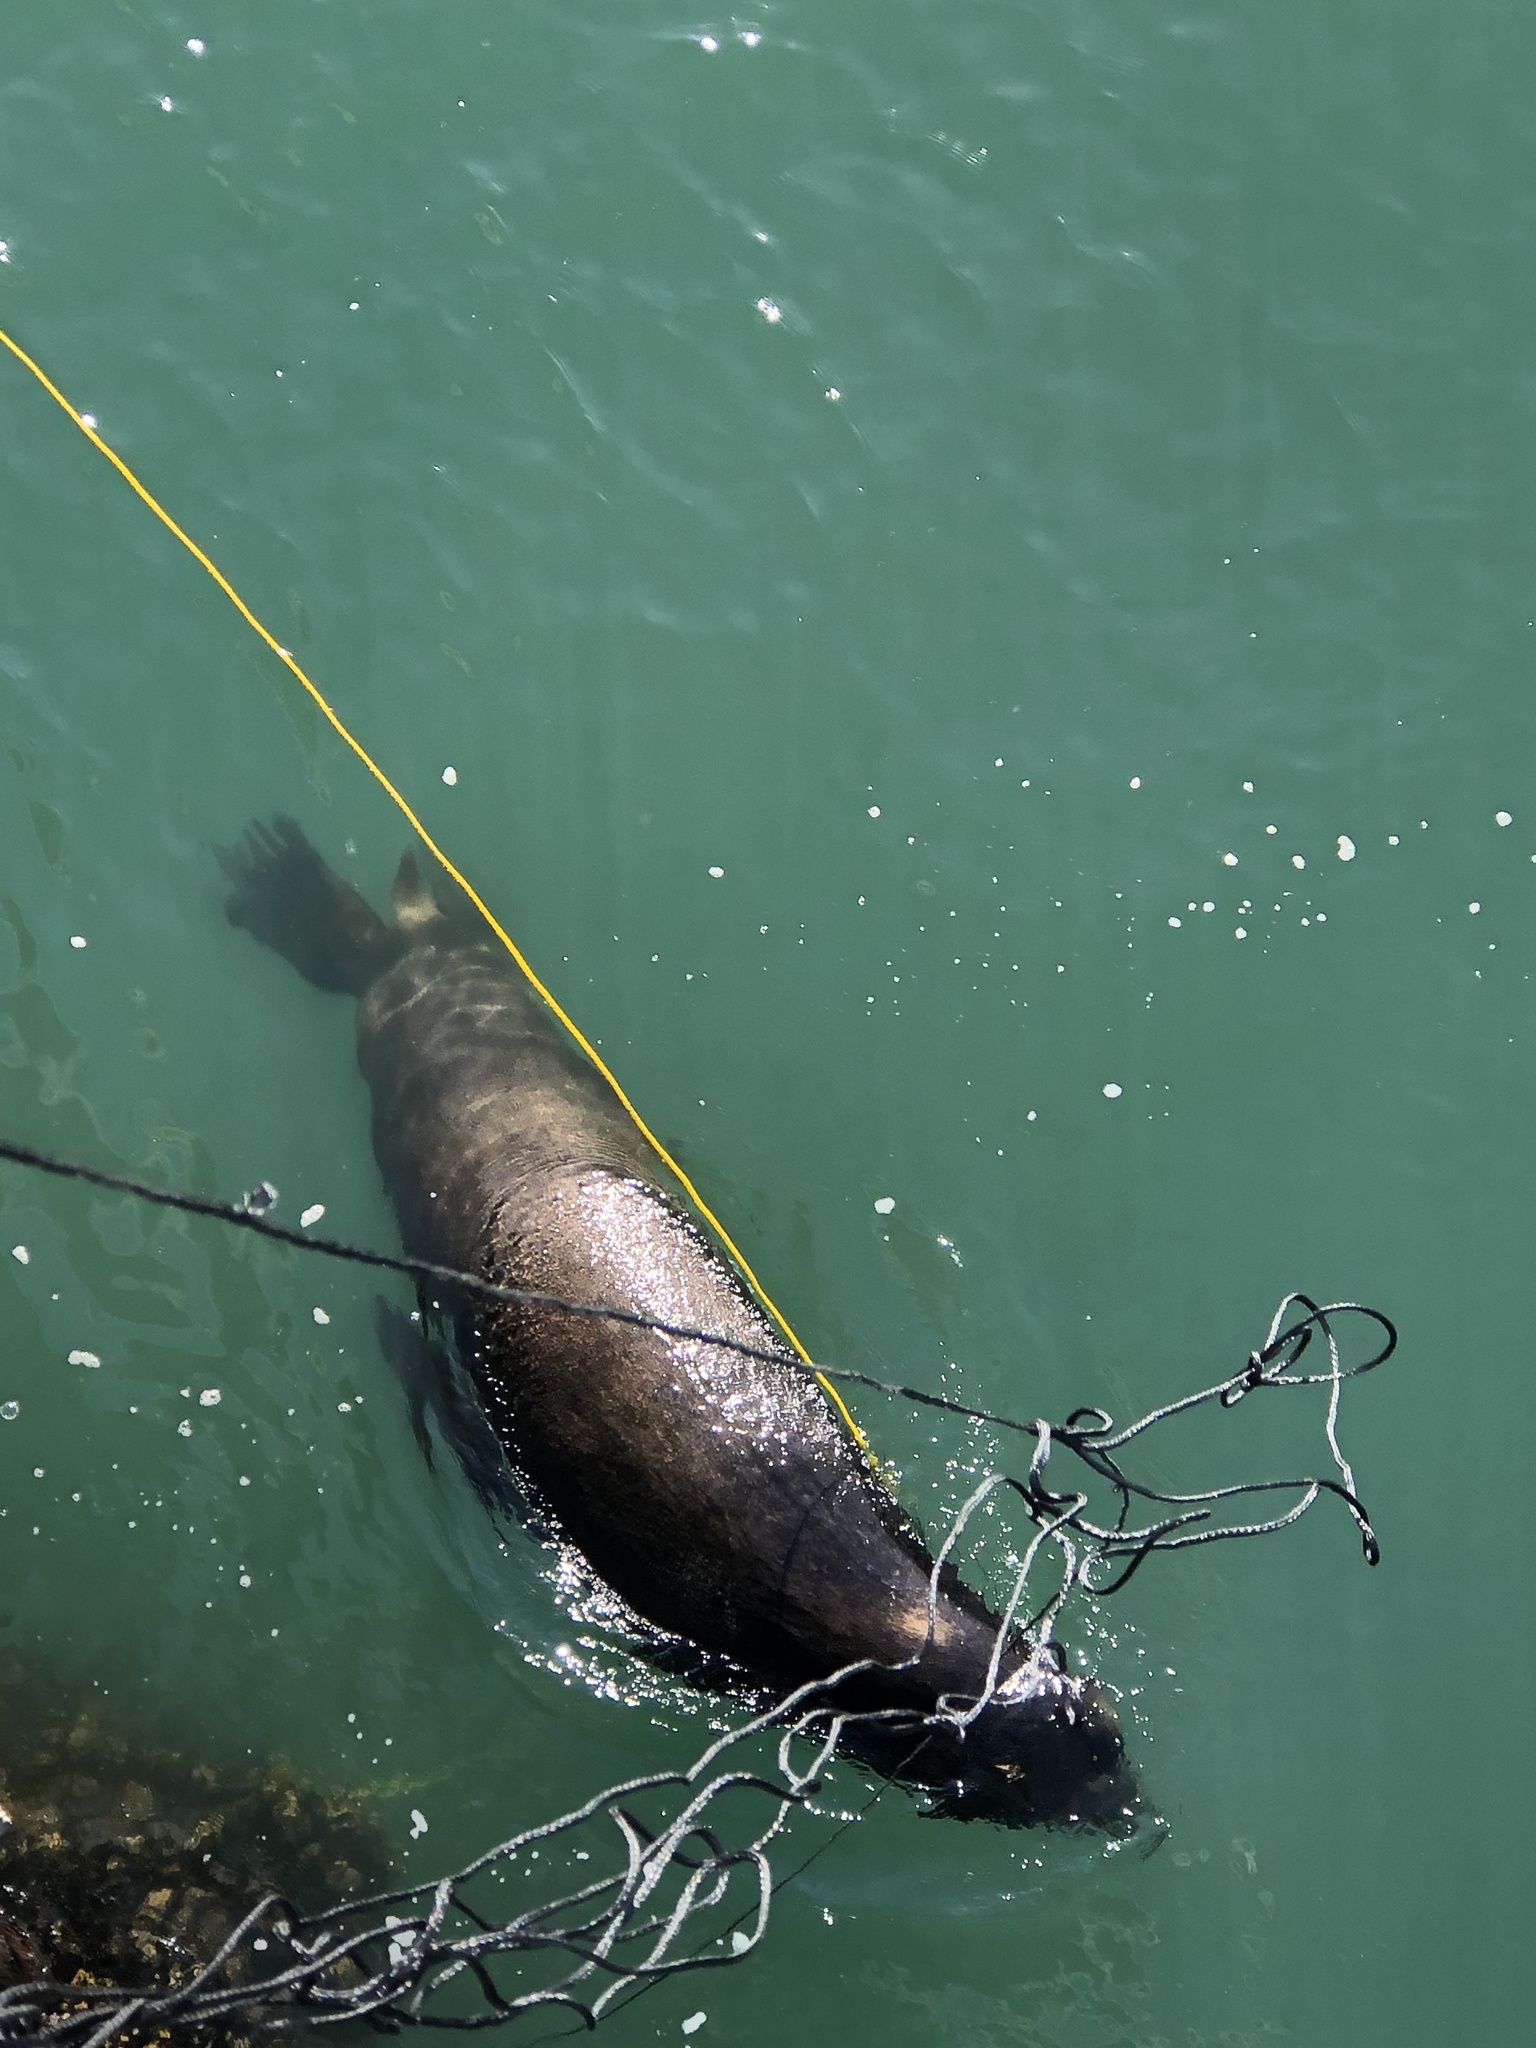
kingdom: Animalia
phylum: Chordata
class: Mammalia
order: Carnivora
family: Otariidae
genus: Zalophus
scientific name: Zalophus californianus
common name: California sea lion
